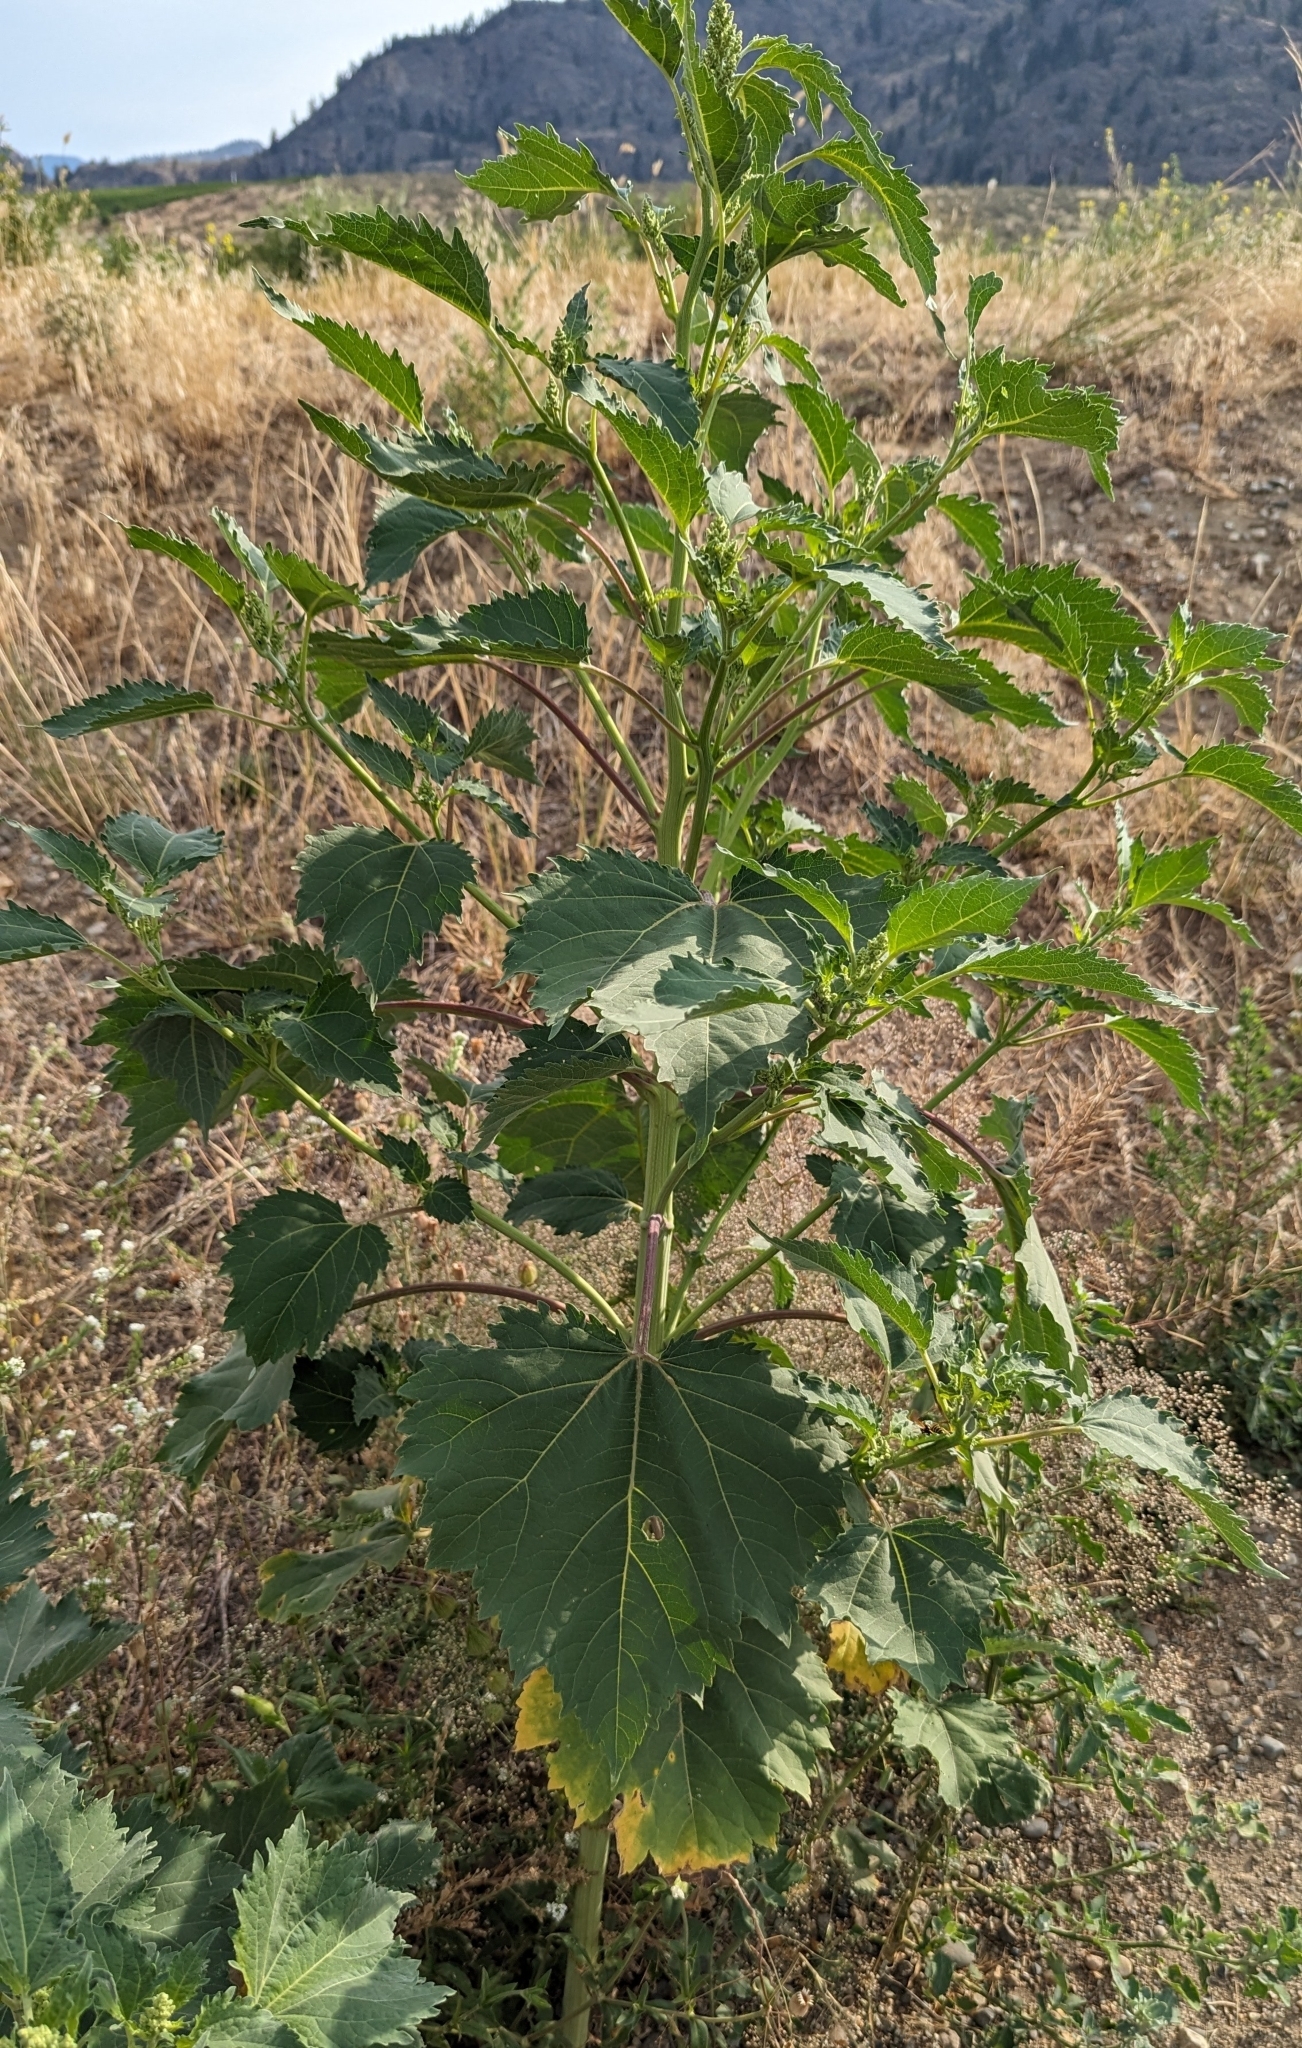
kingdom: Plantae
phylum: Tracheophyta
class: Magnoliopsida
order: Asterales
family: Asteraceae
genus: Cyclachaena
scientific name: Cyclachaena xanthiifolia
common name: Giant sumpweed
